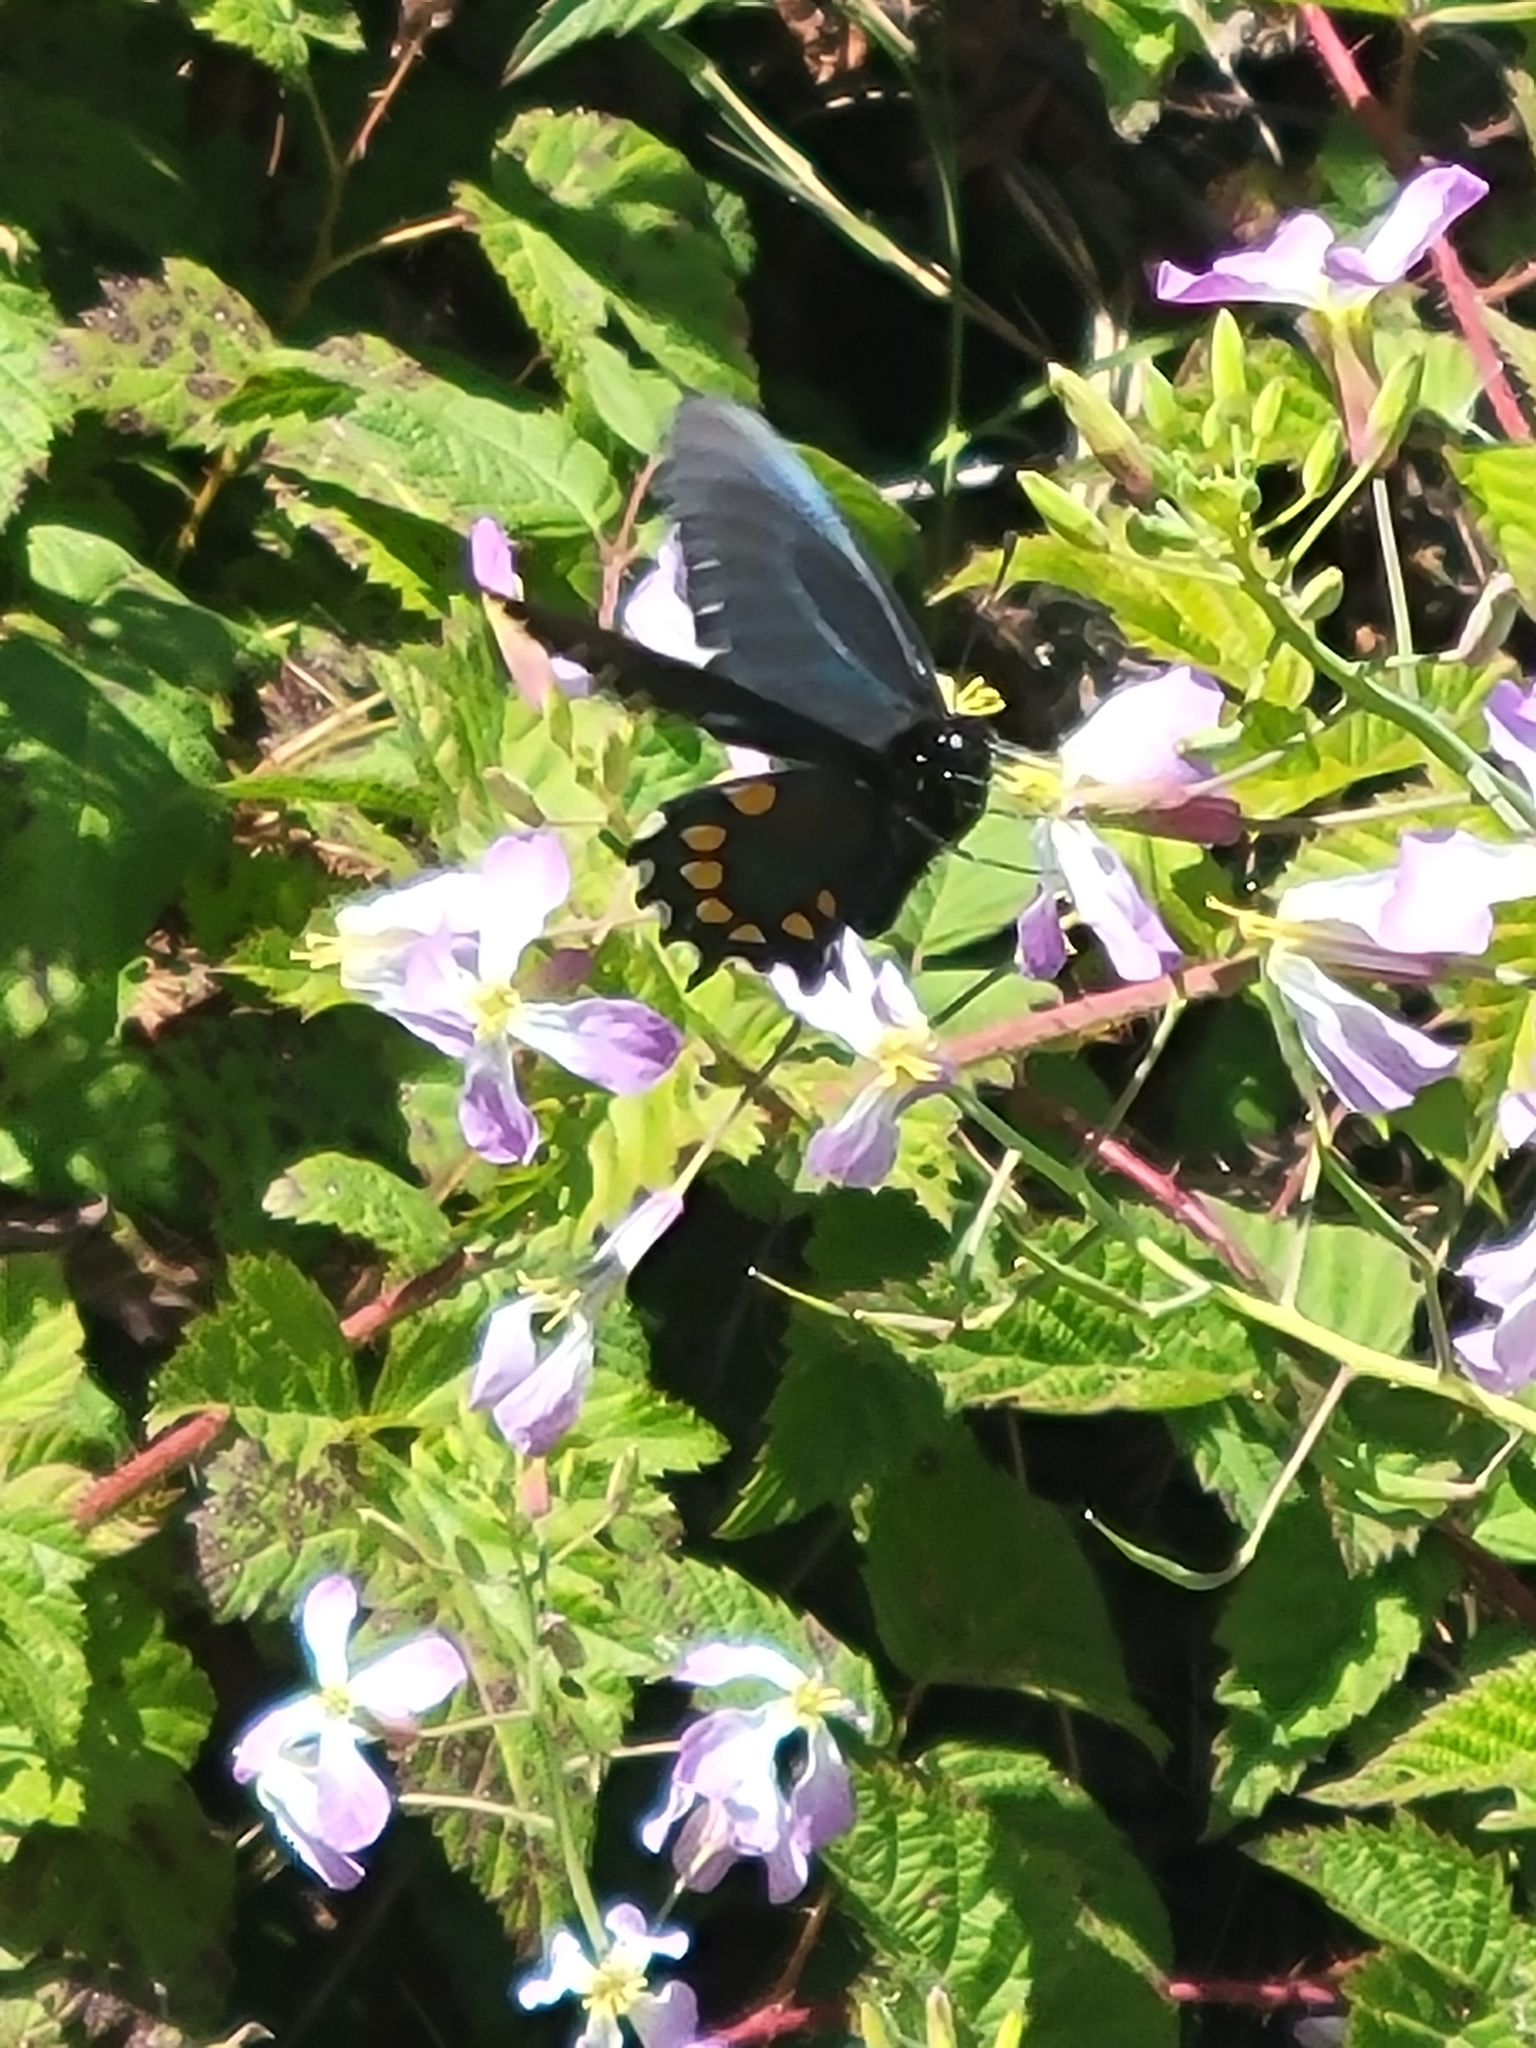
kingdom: Animalia
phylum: Arthropoda
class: Insecta
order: Lepidoptera
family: Papilionidae
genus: Battus
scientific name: Battus philenor
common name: Pipevine swallowtail
